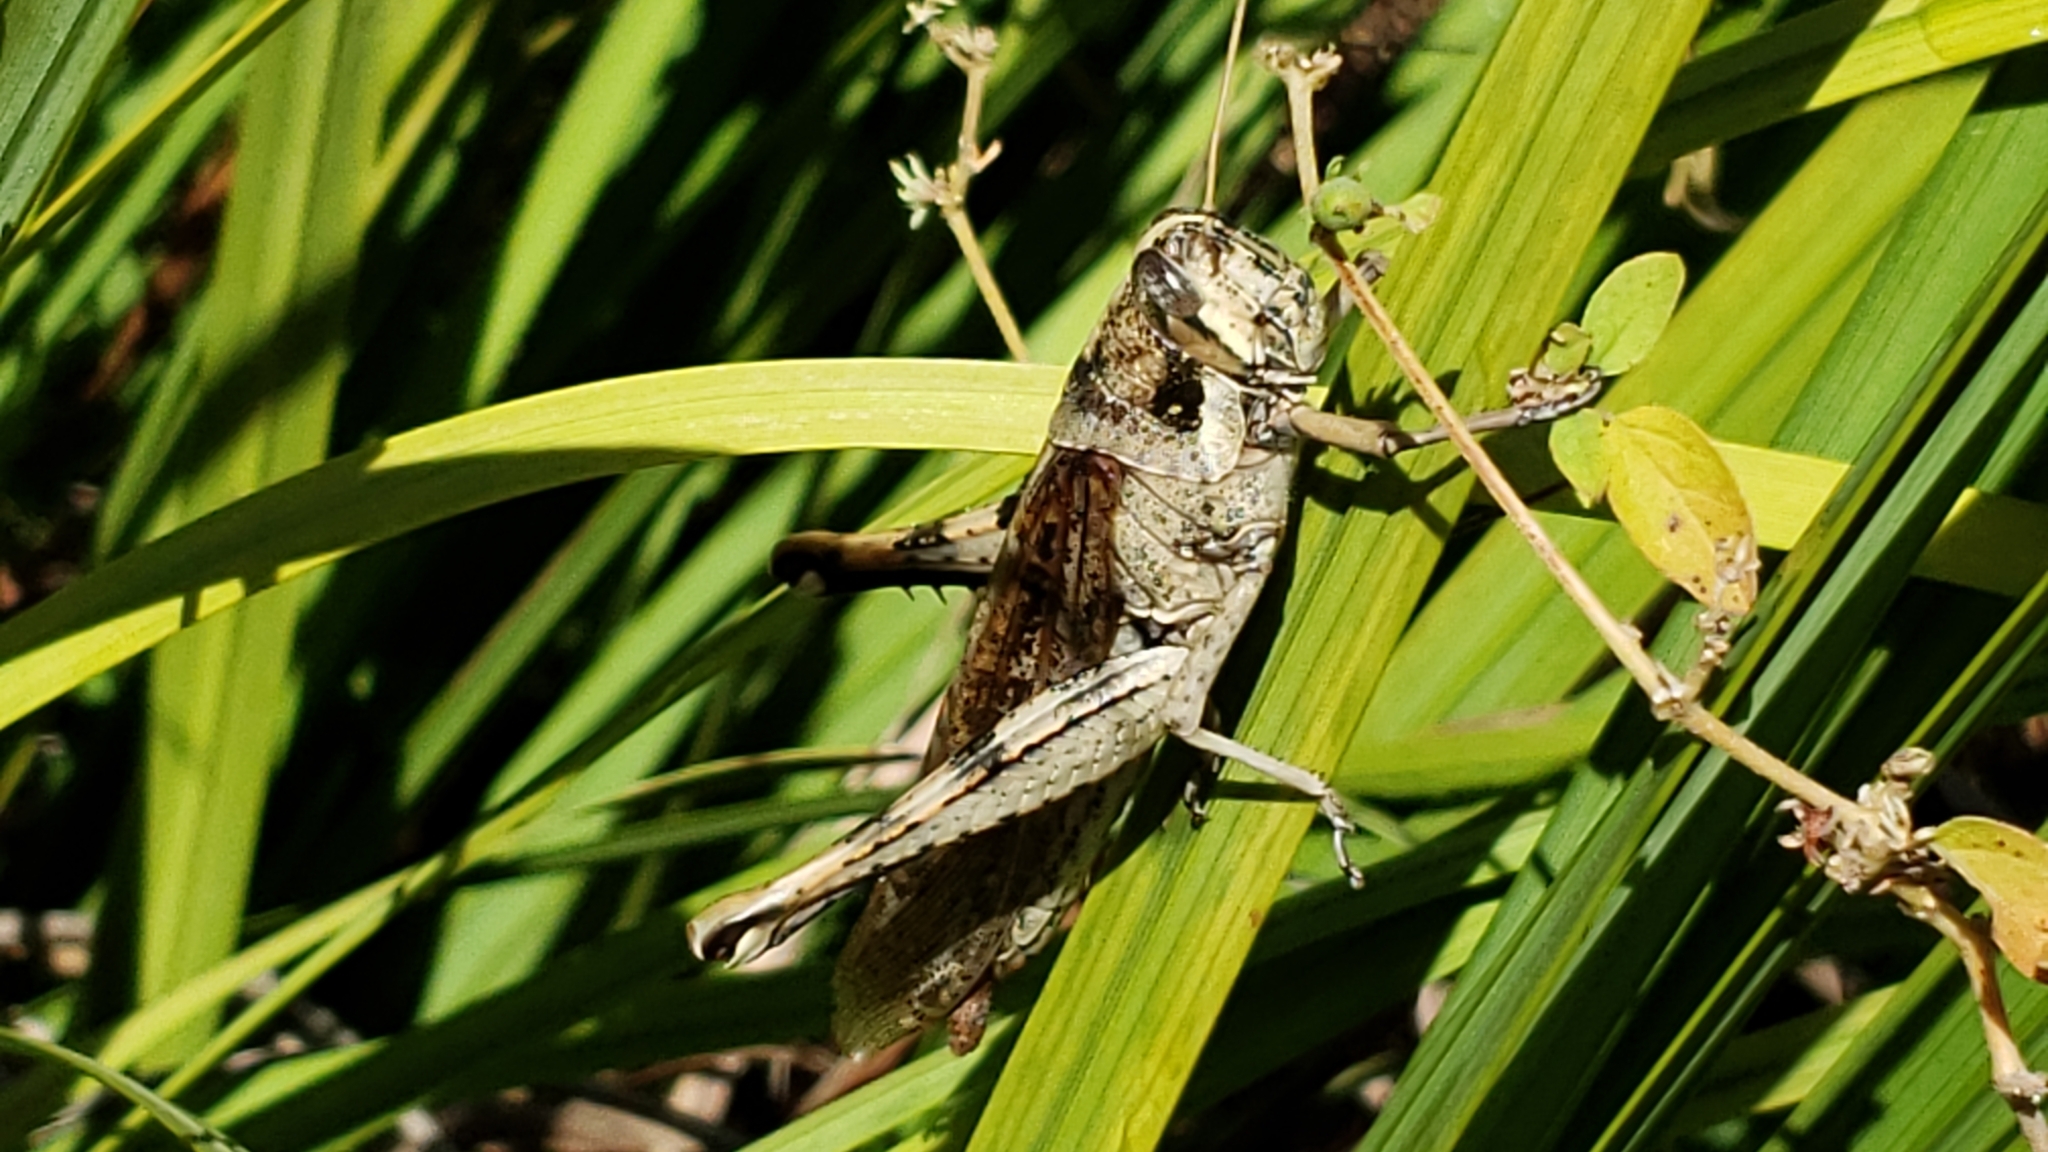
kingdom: Animalia
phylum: Arthropoda
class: Insecta
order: Orthoptera
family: Acrididae
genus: Schistocerca
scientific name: Schistocerca nitens
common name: Vagrant grasshopper
